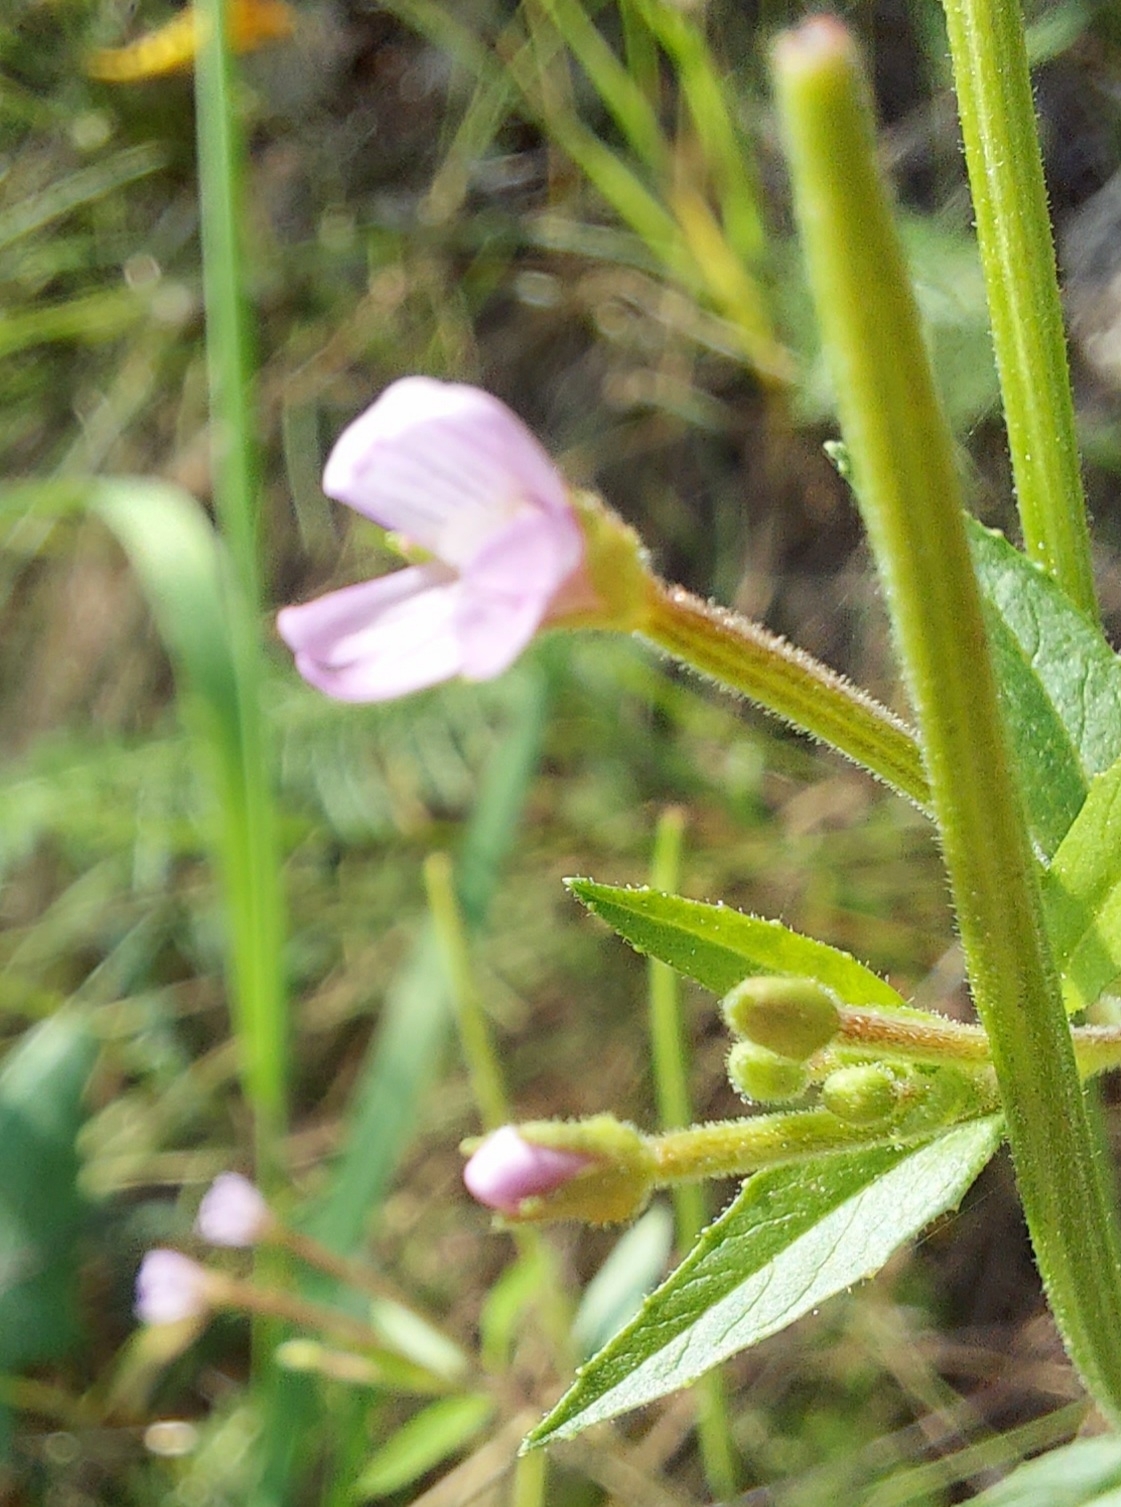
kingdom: Plantae
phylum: Tracheophyta
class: Magnoliopsida
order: Myrtales
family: Onagraceae
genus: Epilobium
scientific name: Epilobium ciliatum
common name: American willowherb
